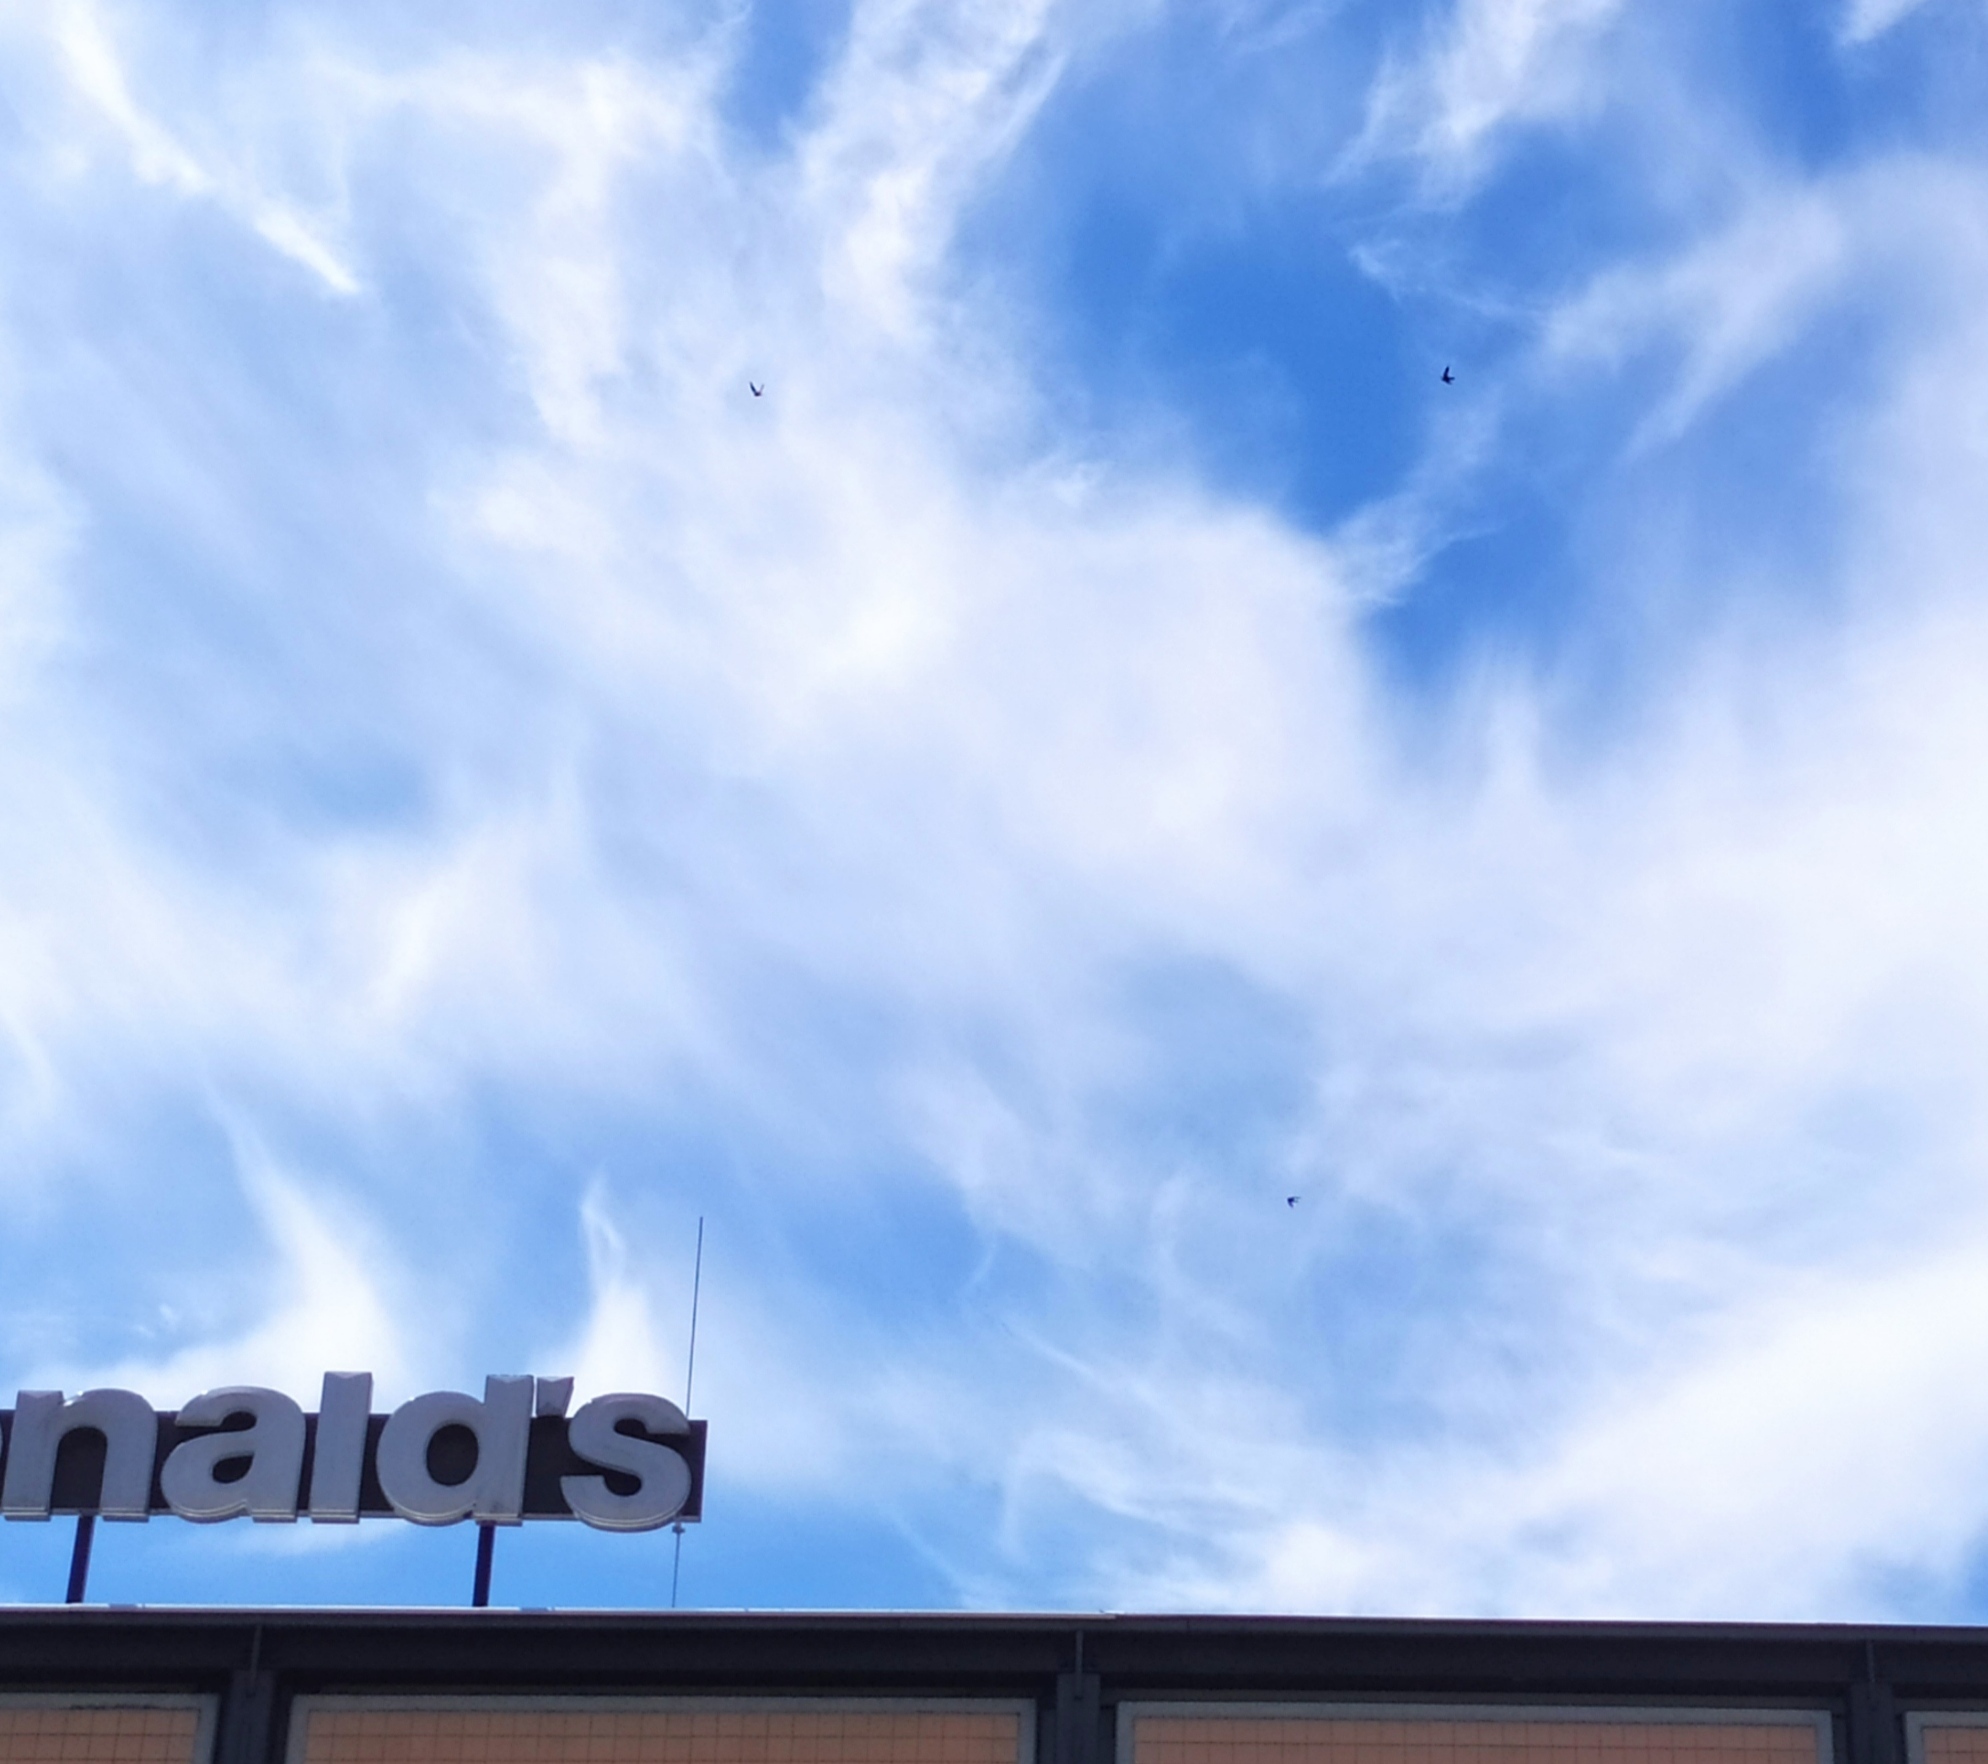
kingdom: Animalia
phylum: Chordata
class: Aves
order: Apodiformes
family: Apodidae
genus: Apus
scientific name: Apus apus
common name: Common swift
